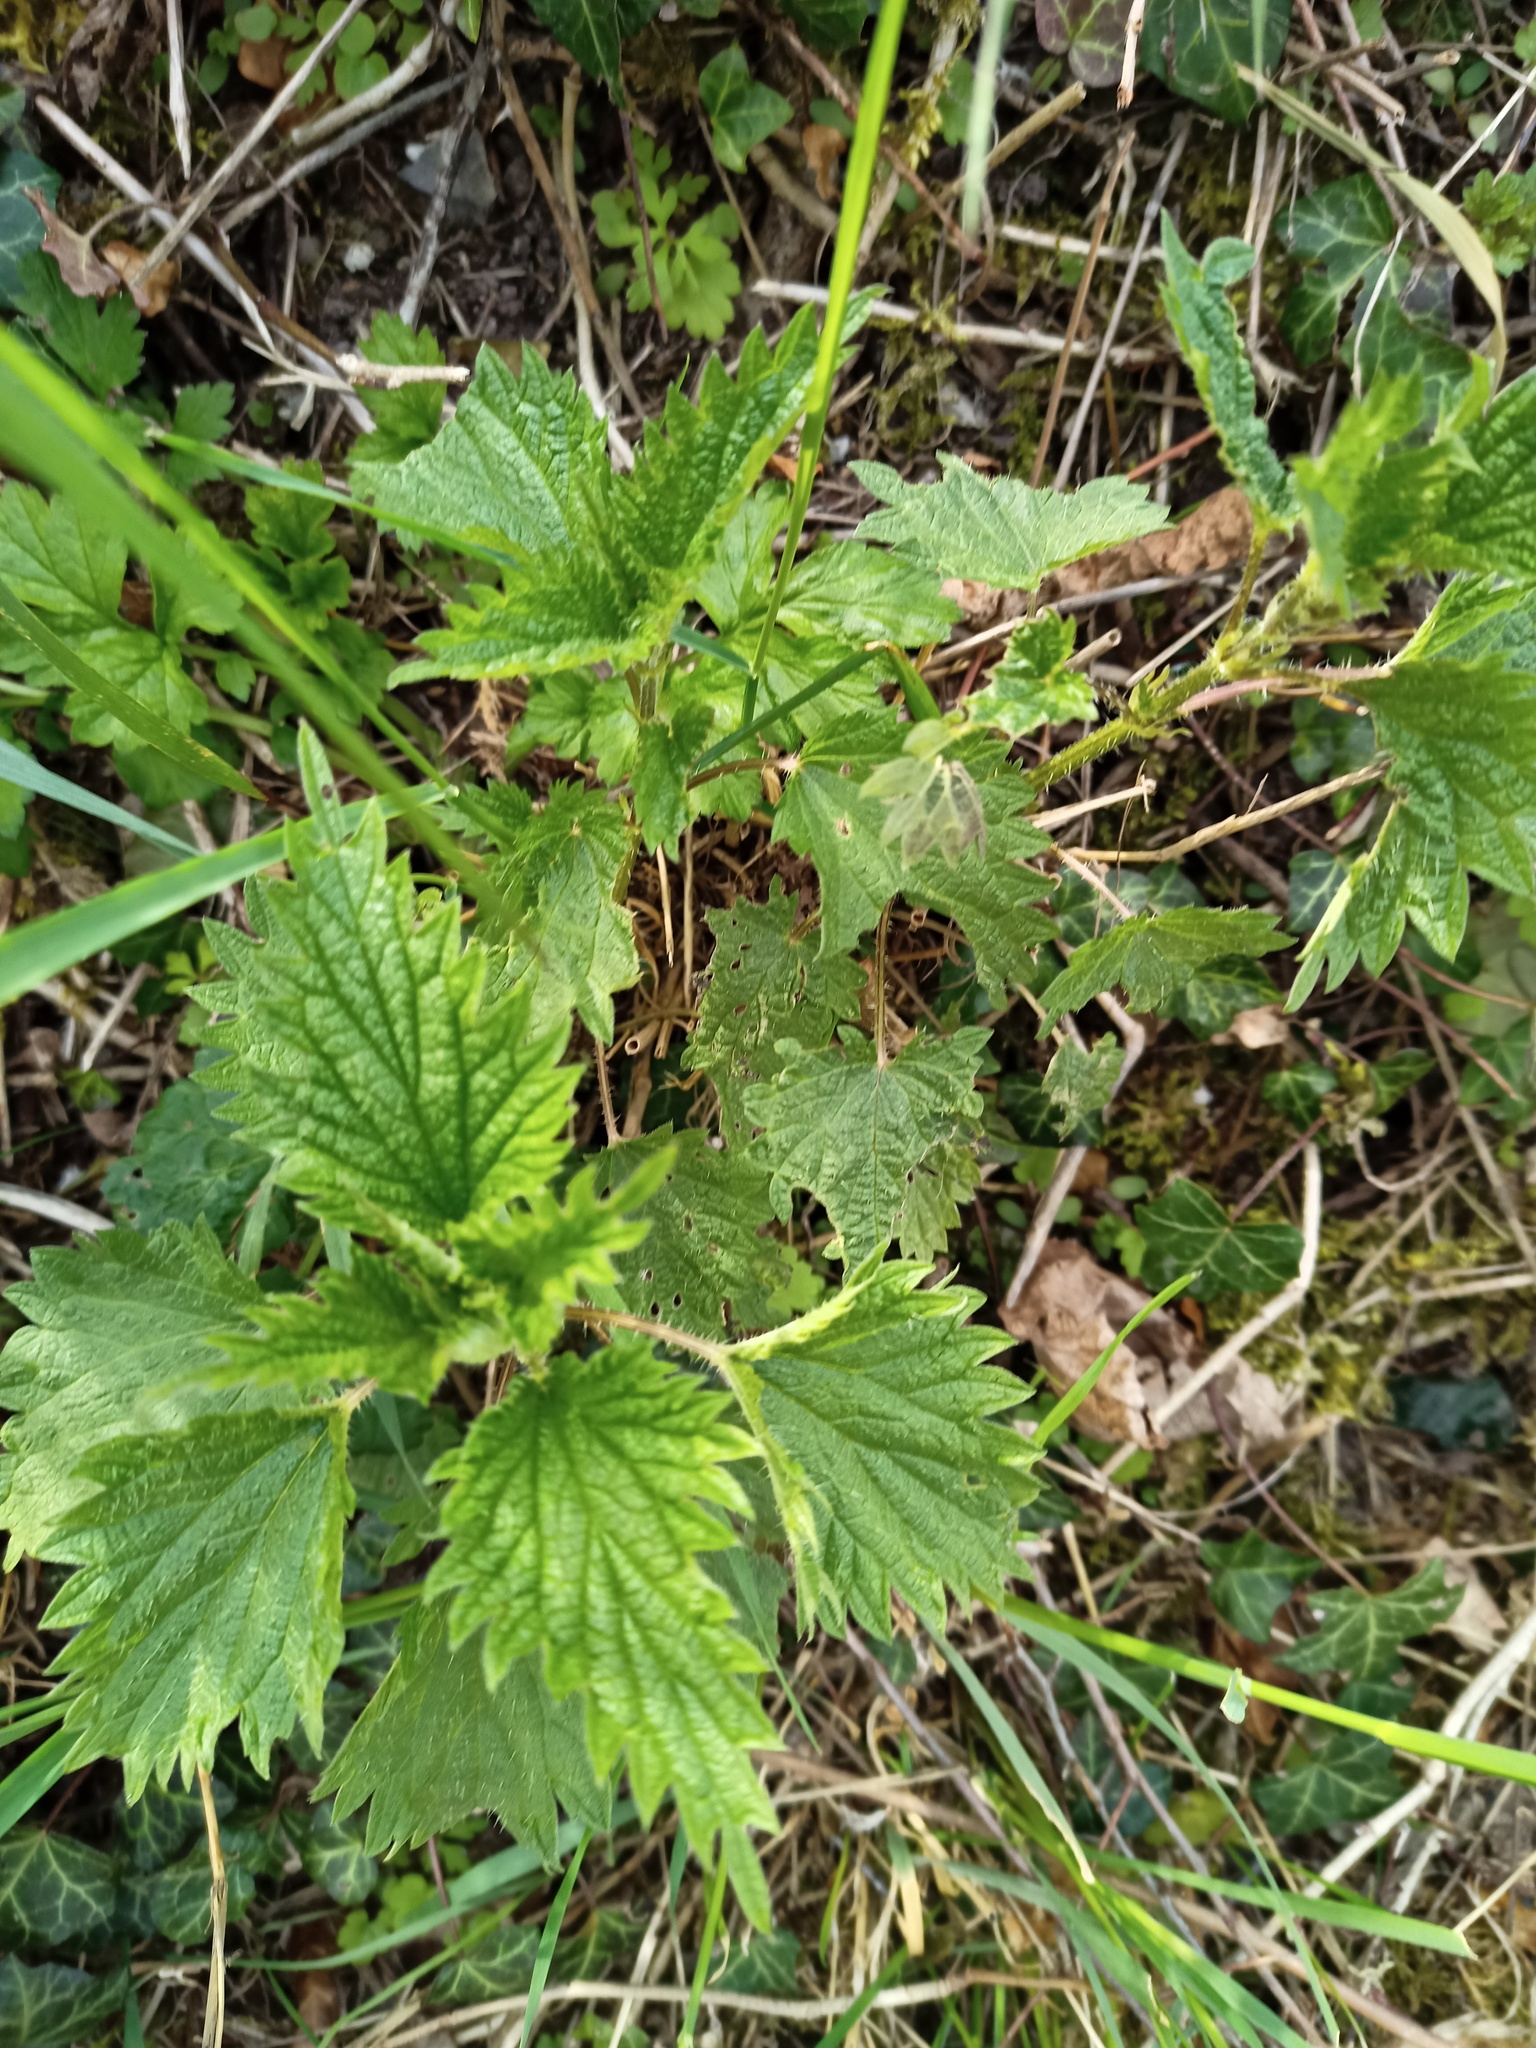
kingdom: Plantae
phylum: Tracheophyta
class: Magnoliopsida
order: Rosales
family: Urticaceae
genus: Urtica
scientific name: Urtica dioica
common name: Common nettle
